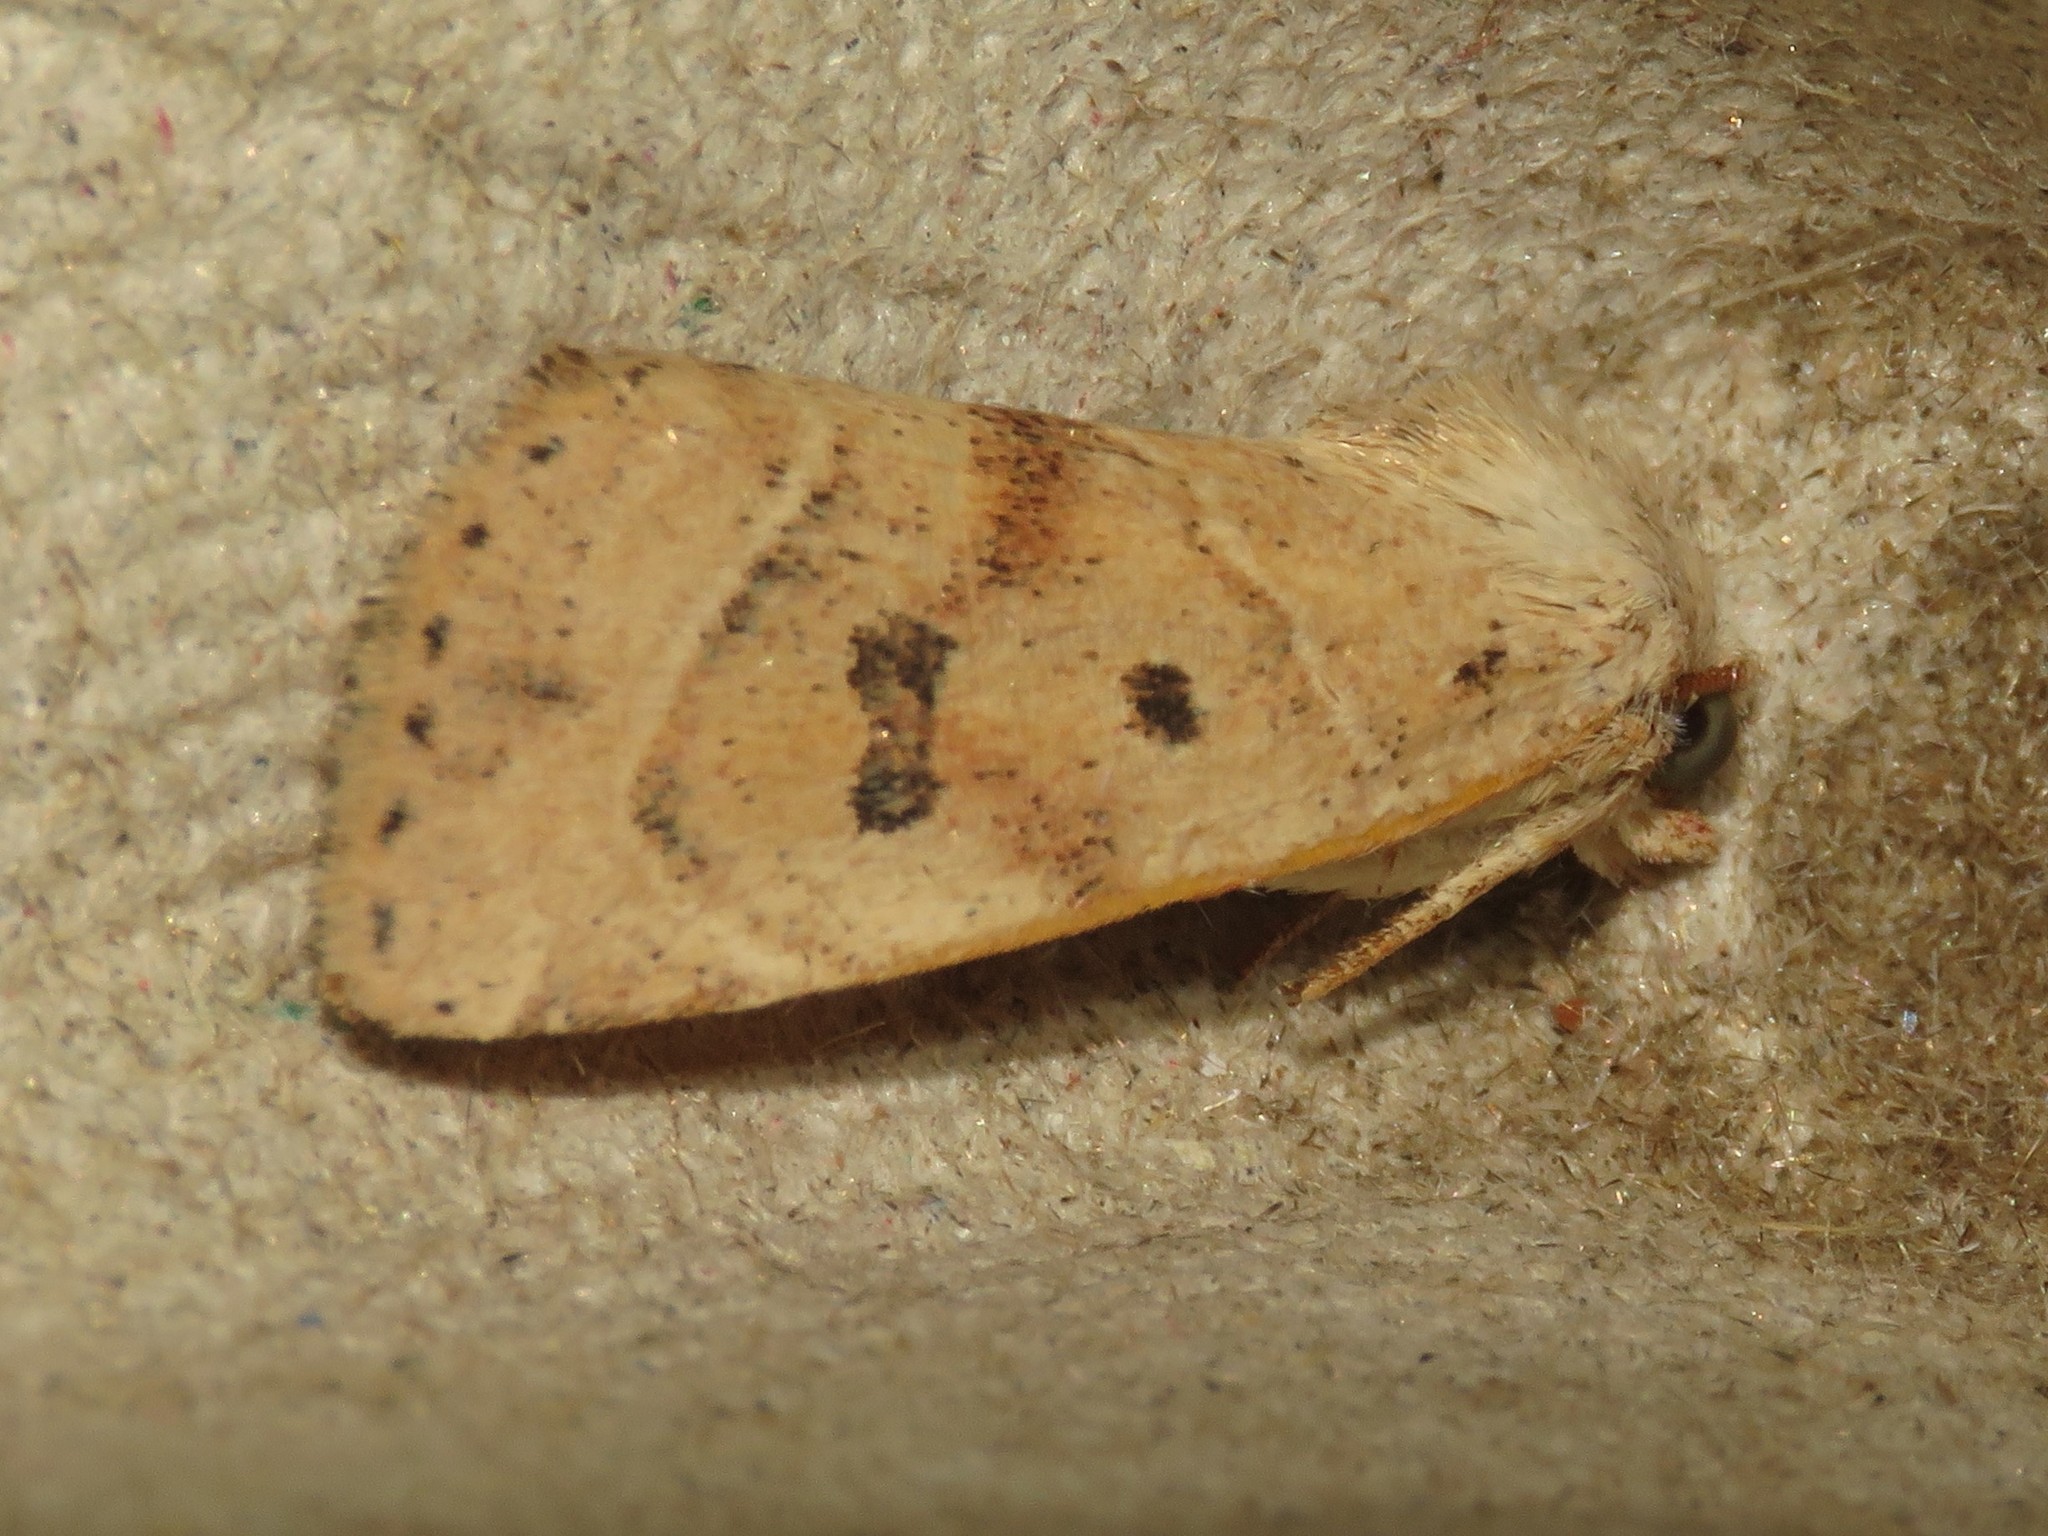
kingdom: Animalia
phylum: Arthropoda
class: Insecta
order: Lepidoptera
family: Noctuidae
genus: Cosmia
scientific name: Cosmia calami
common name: American dun-bar moth
